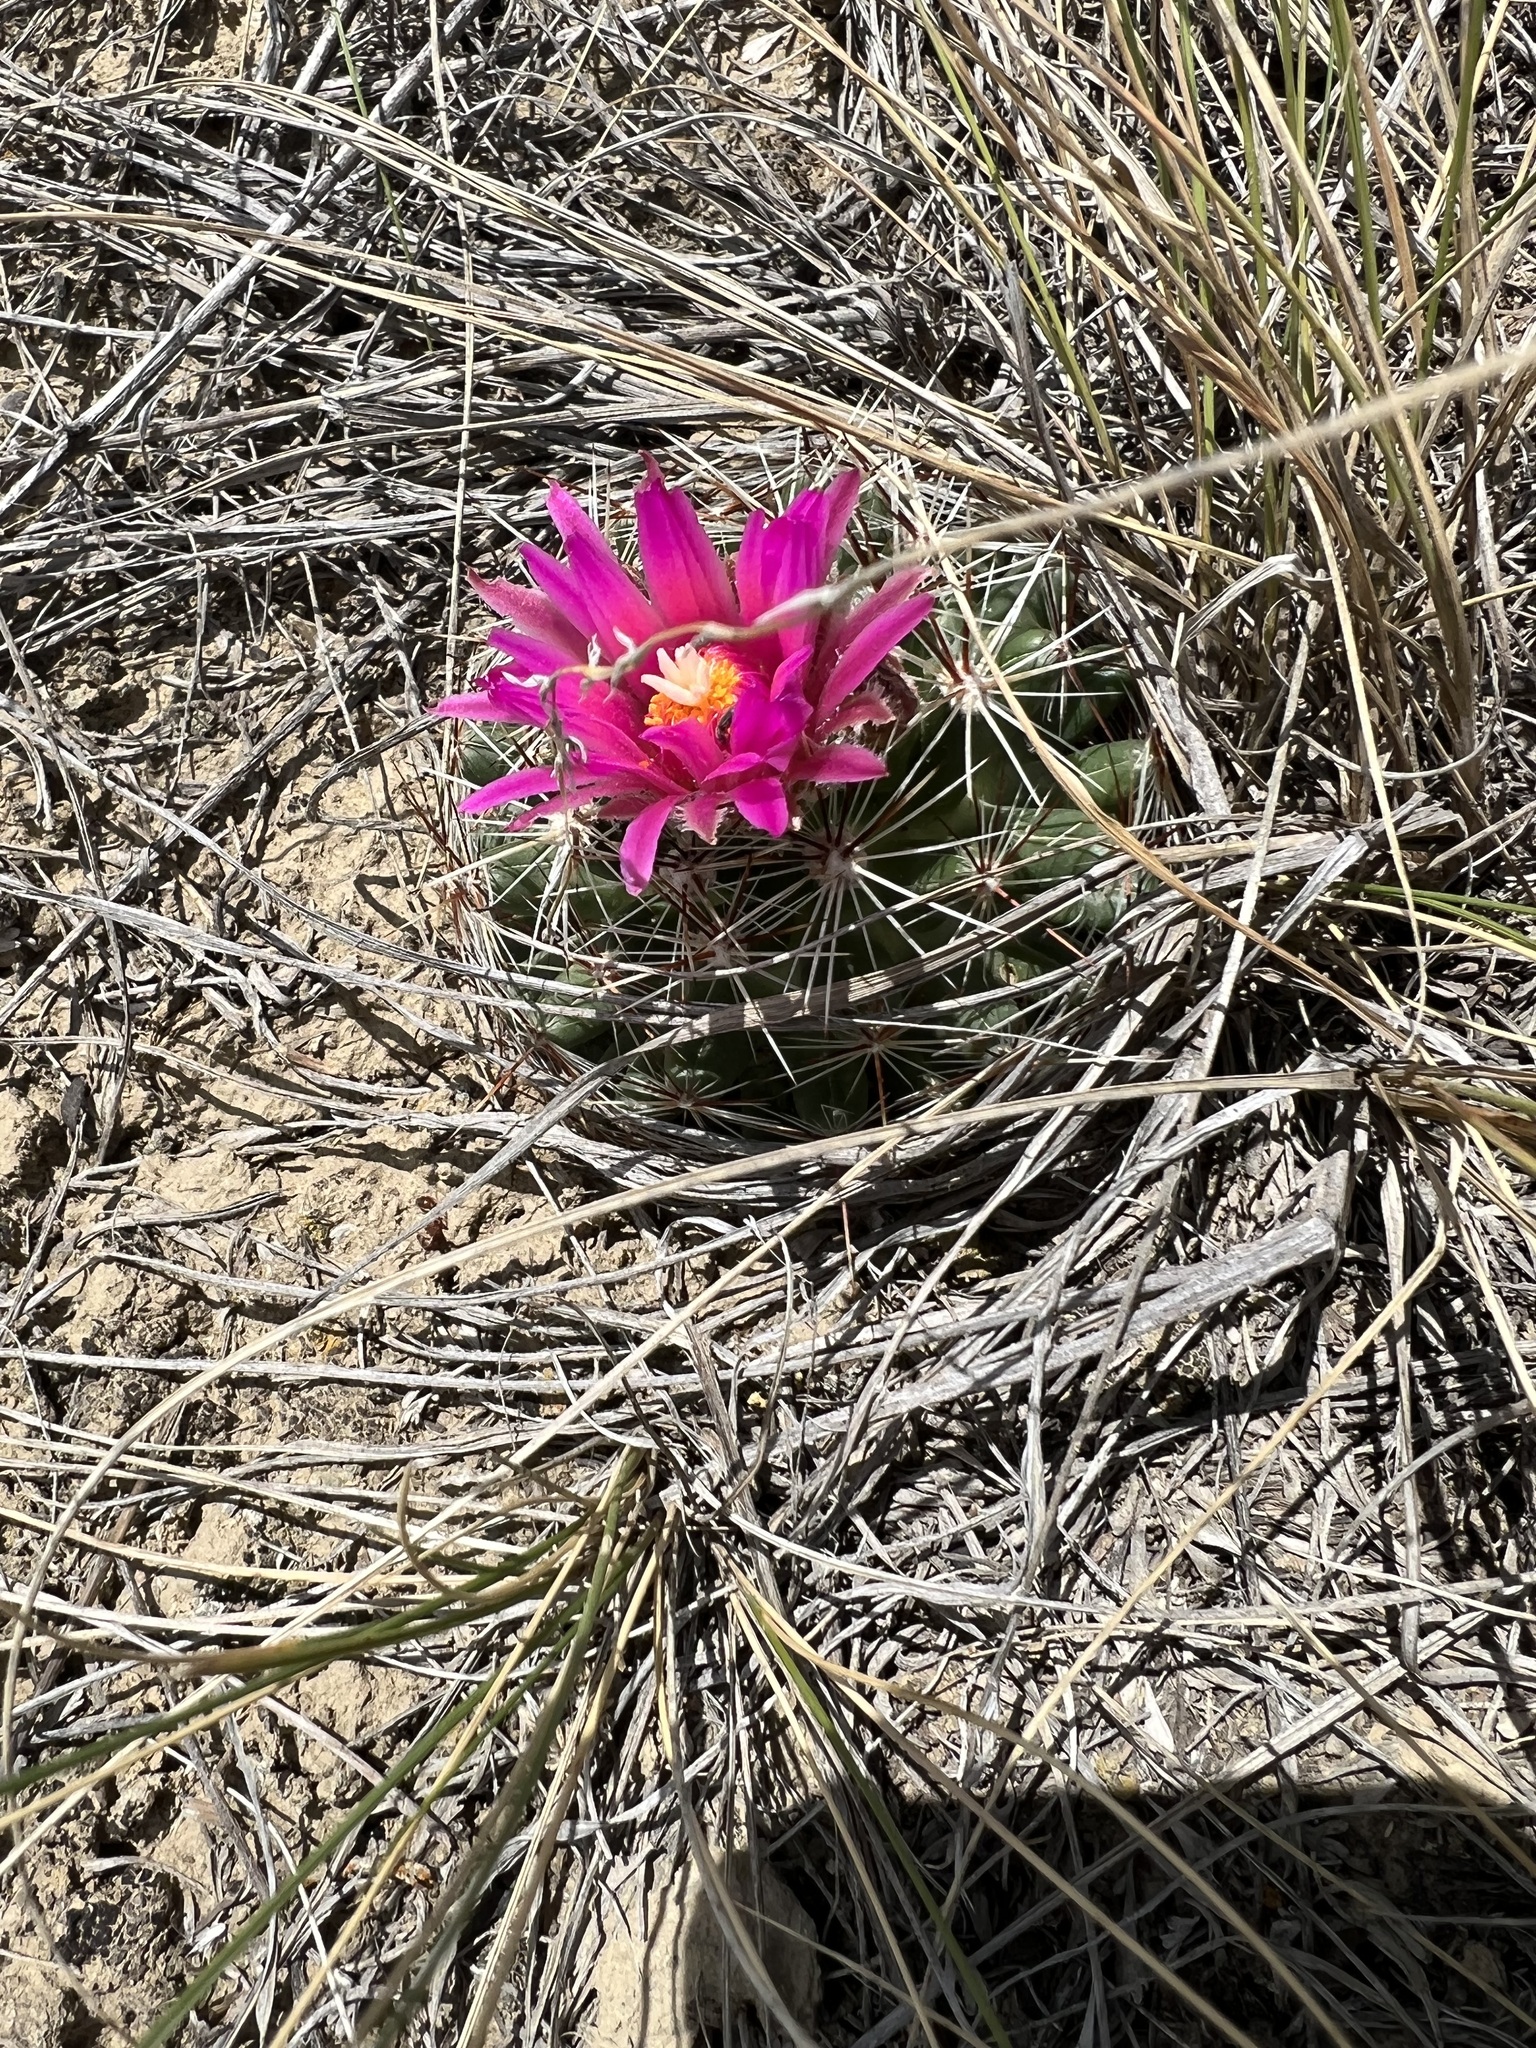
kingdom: Plantae
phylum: Tracheophyta
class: Magnoliopsida
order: Caryophyllales
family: Cactaceae
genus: Pelecyphora
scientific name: Pelecyphora vivipara
